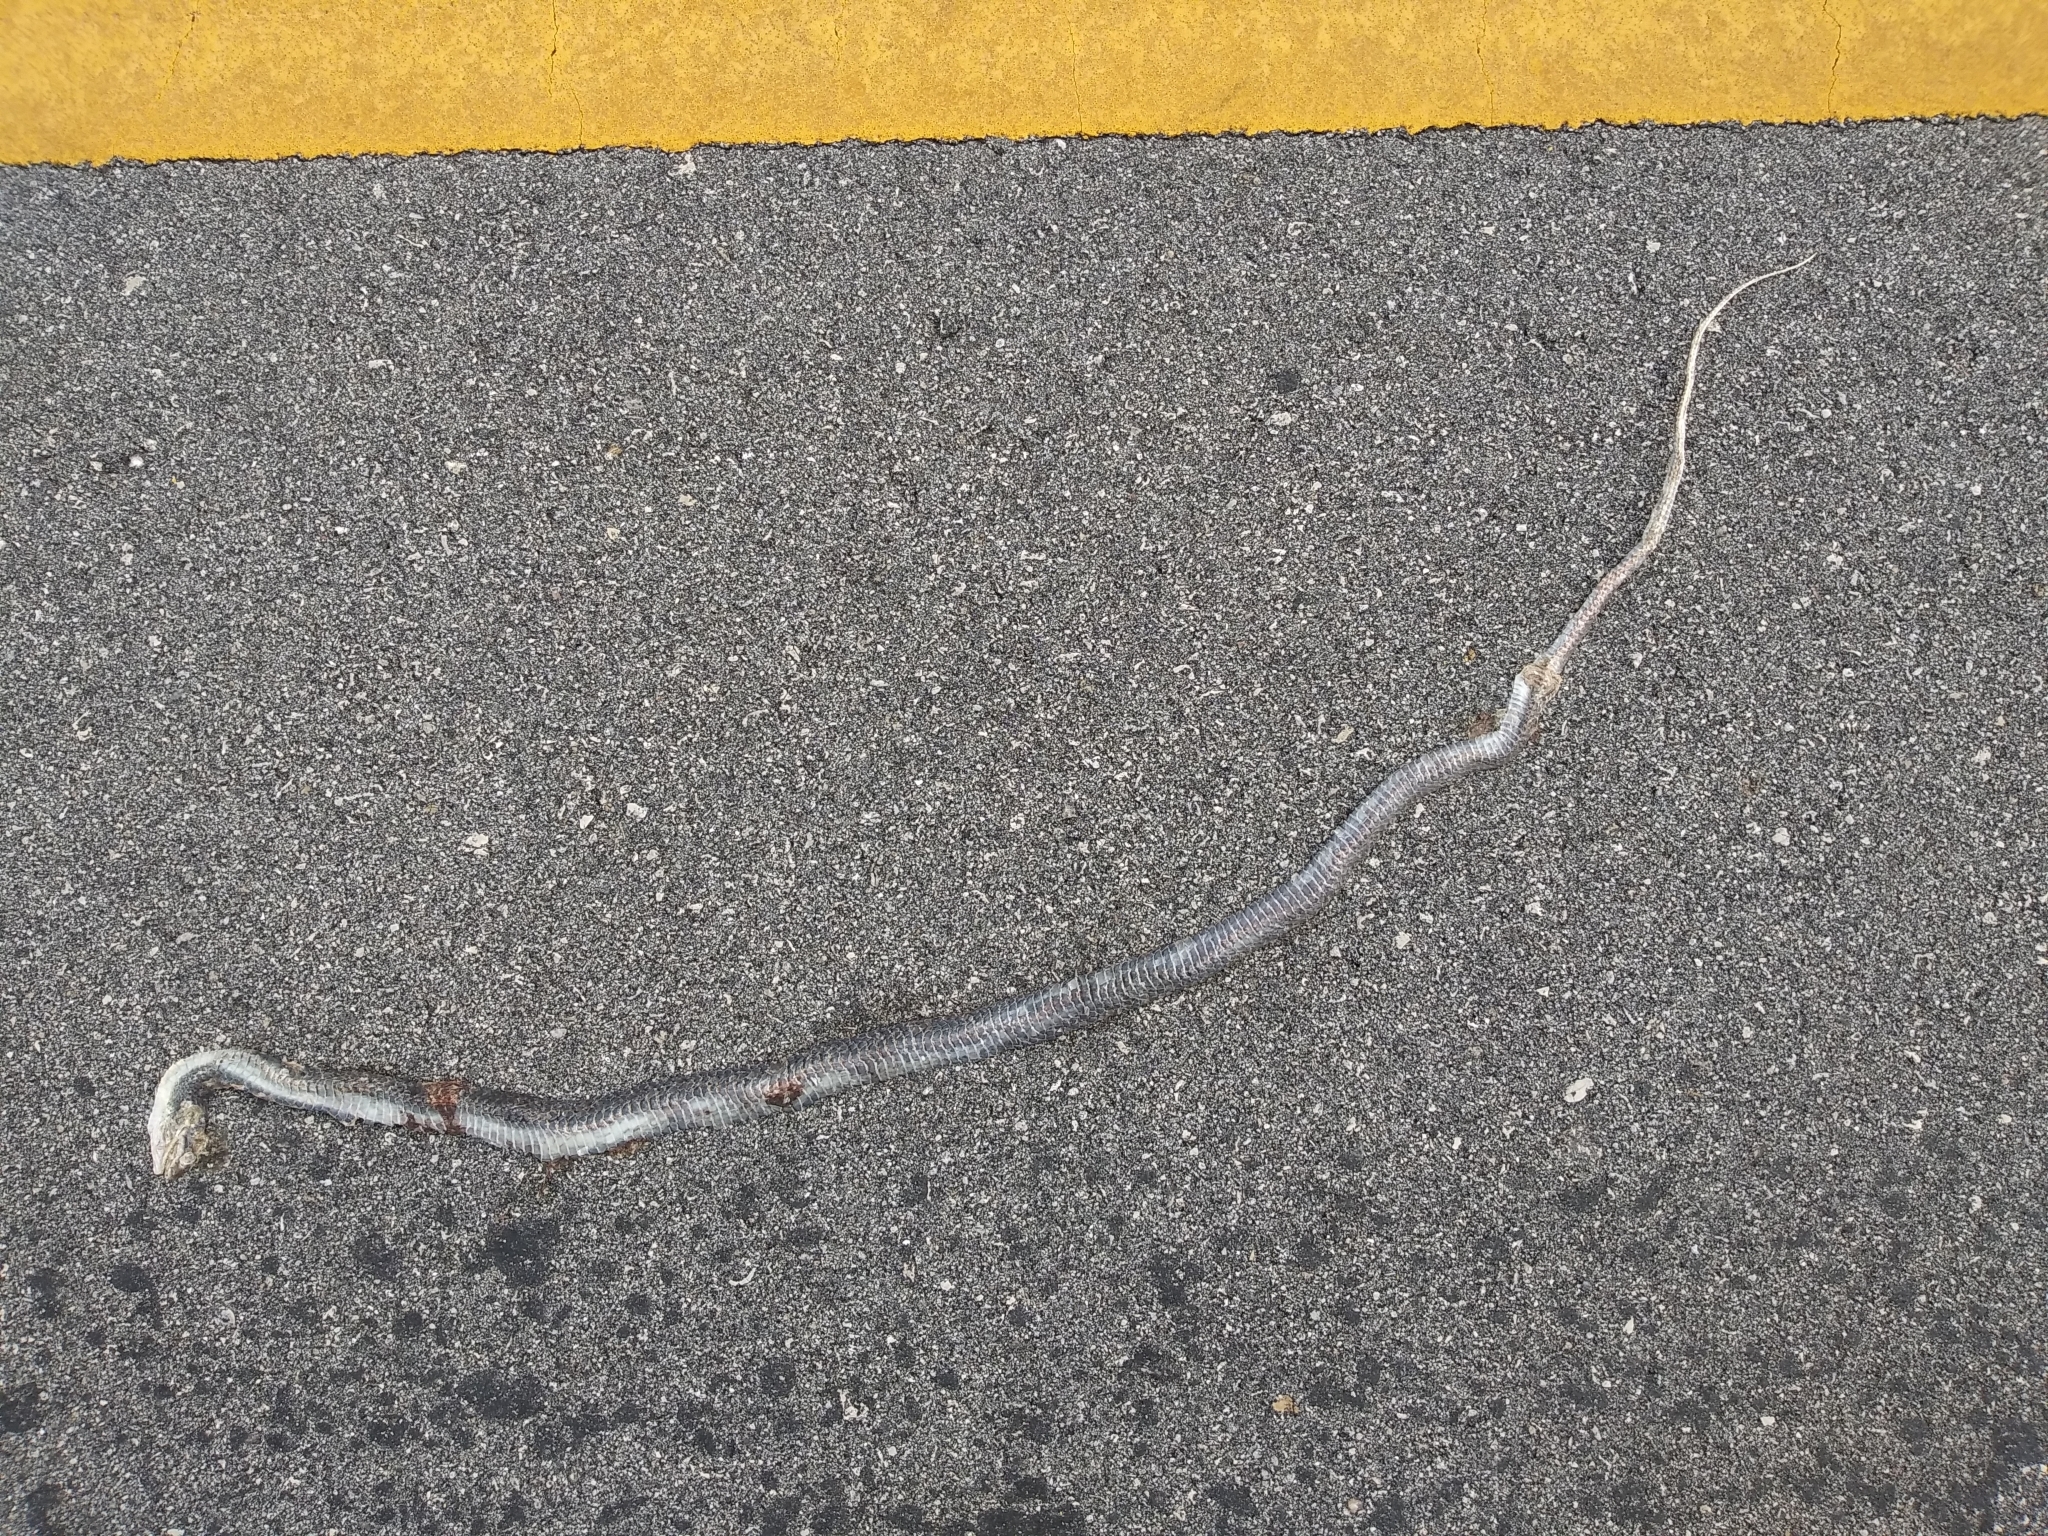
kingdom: Animalia
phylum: Chordata
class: Squamata
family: Colubridae
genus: Coluber
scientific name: Coluber constrictor
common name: Eastern racer
